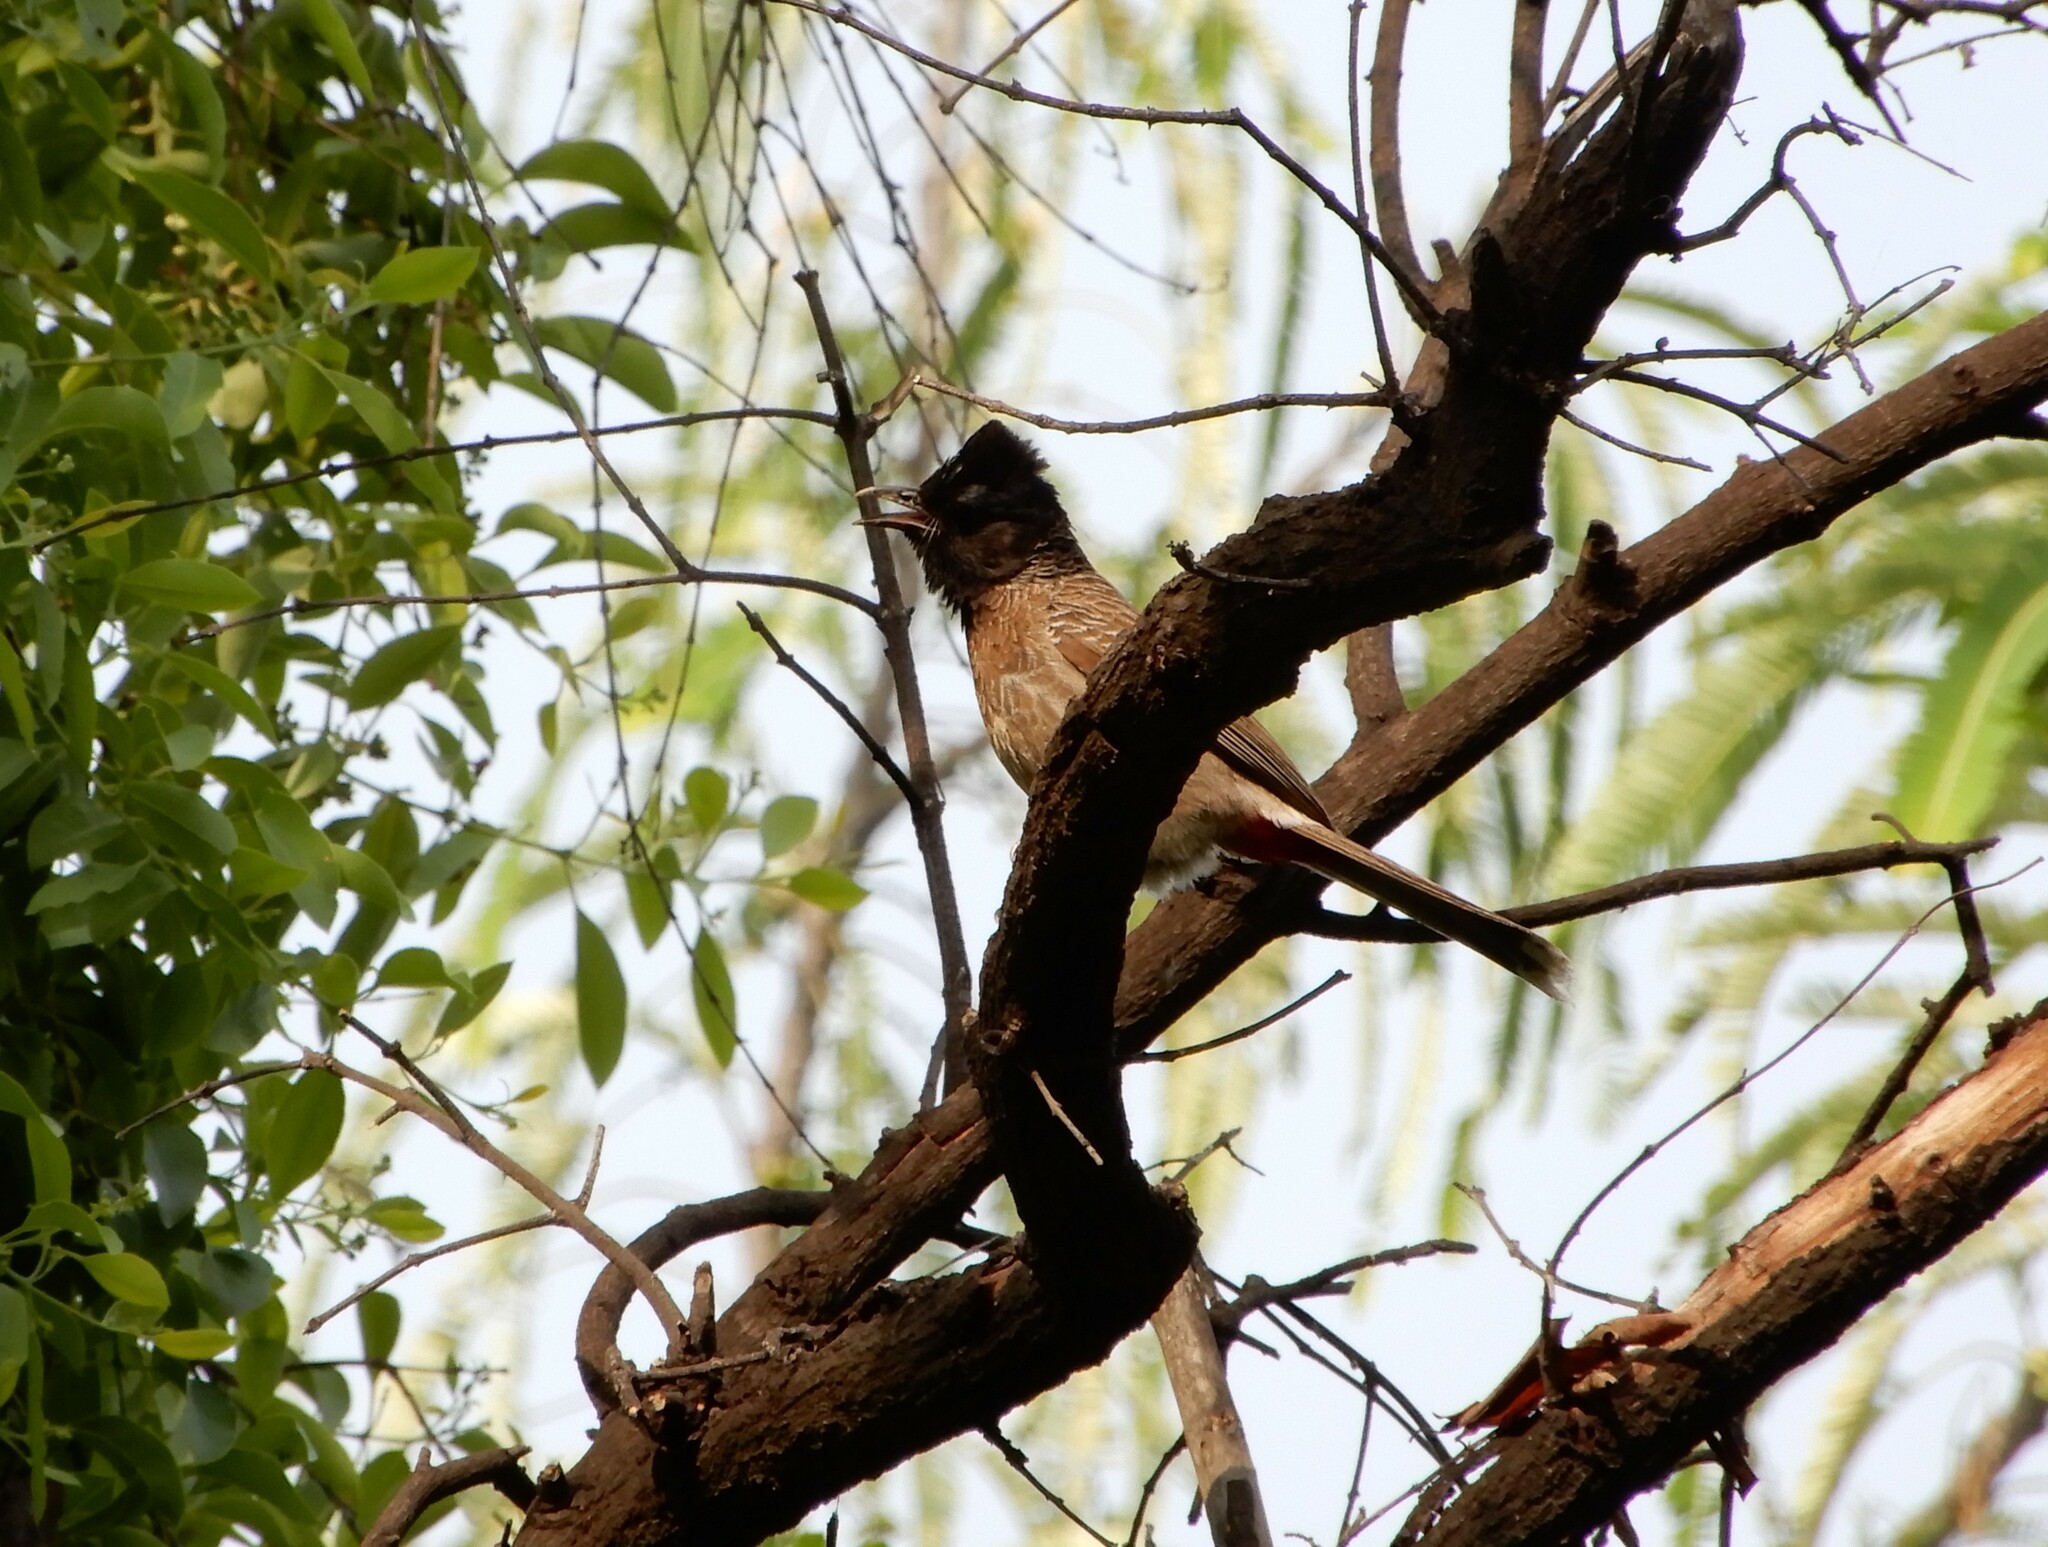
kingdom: Animalia
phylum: Chordata
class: Aves
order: Passeriformes
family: Pycnonotidae
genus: Pycnonotus
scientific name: Pycnonotus cafer
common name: Red-vented bulbul
